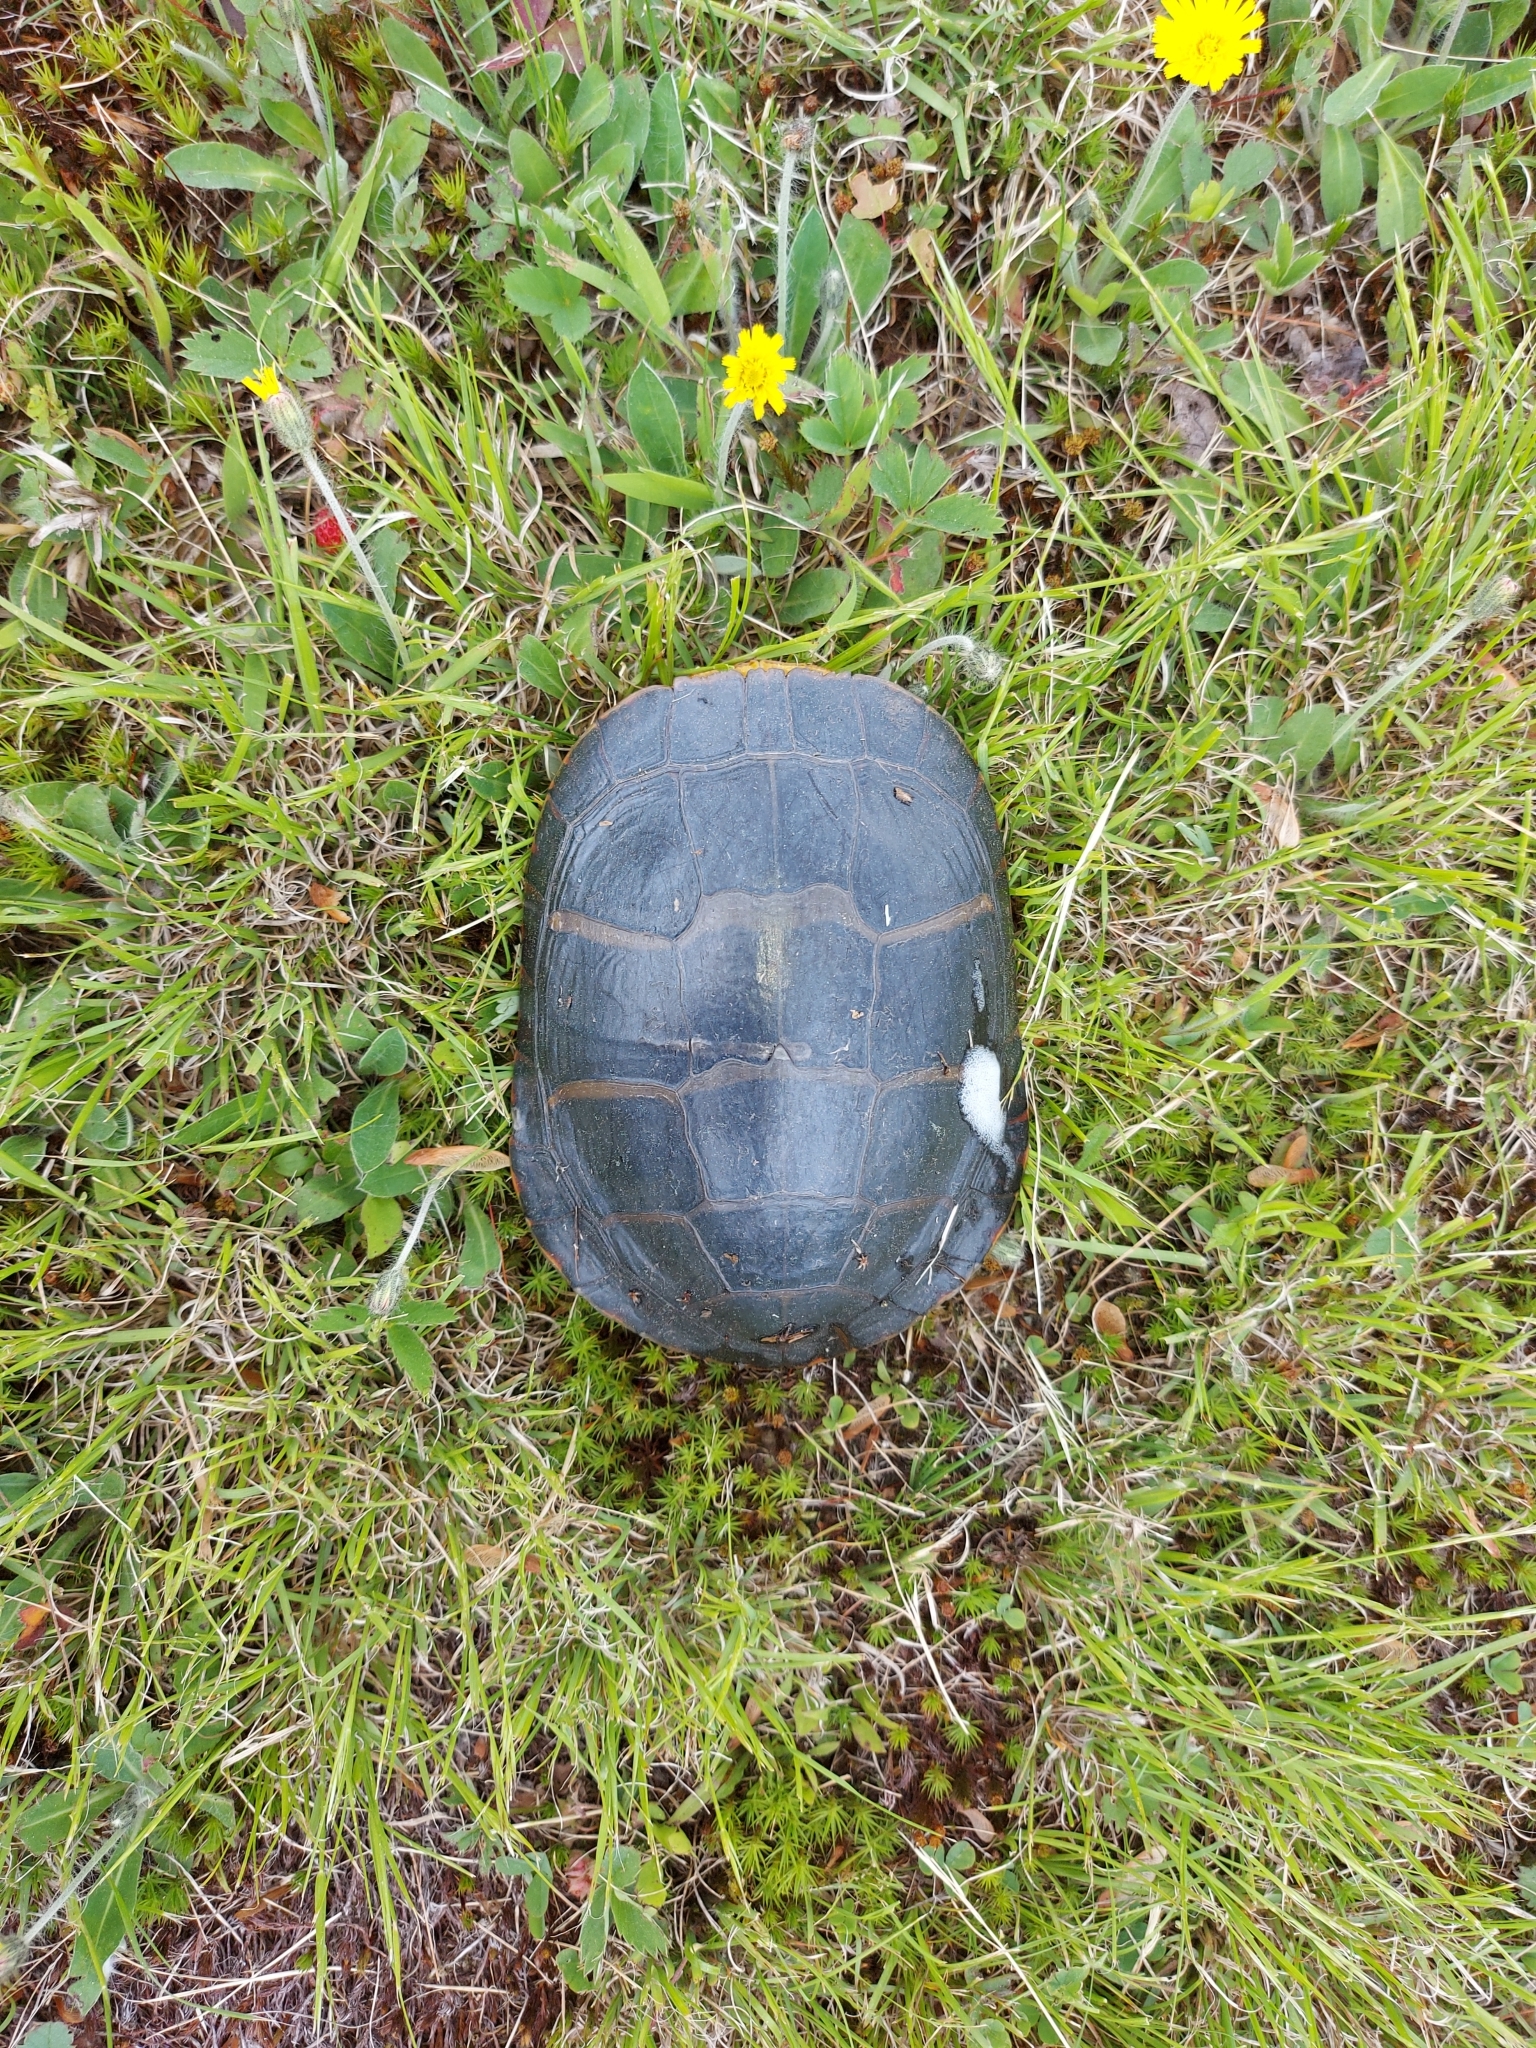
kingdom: Animalia
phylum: Chordata
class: Testudines
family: Emydidae
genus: Chrysemys
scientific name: Chrysemys picta
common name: Painted turtle
